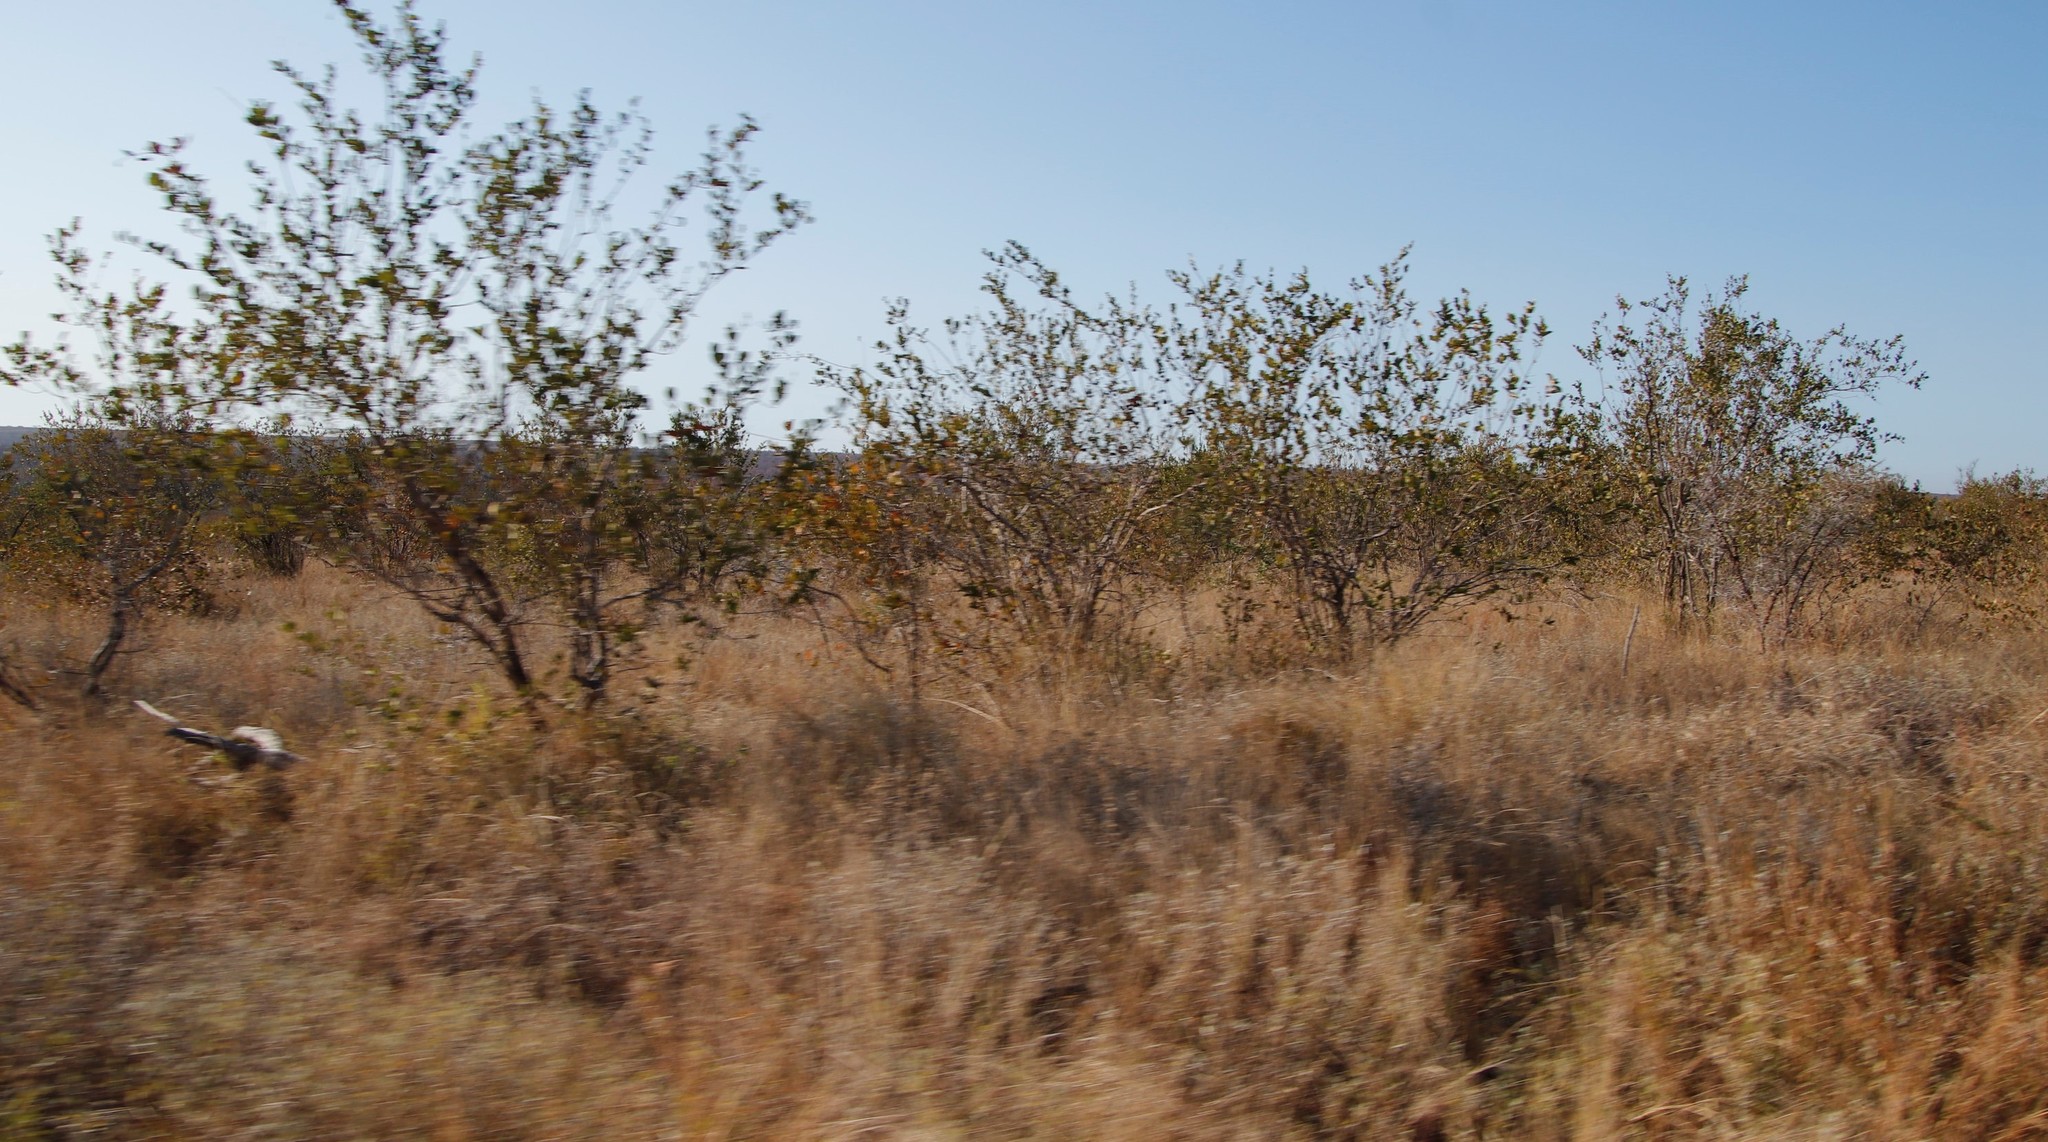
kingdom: Plantae
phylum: Tracheophyta
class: Magnoliopsida
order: Myrtales
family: Combretaceae
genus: Combretum
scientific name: Combretum apiculatum
